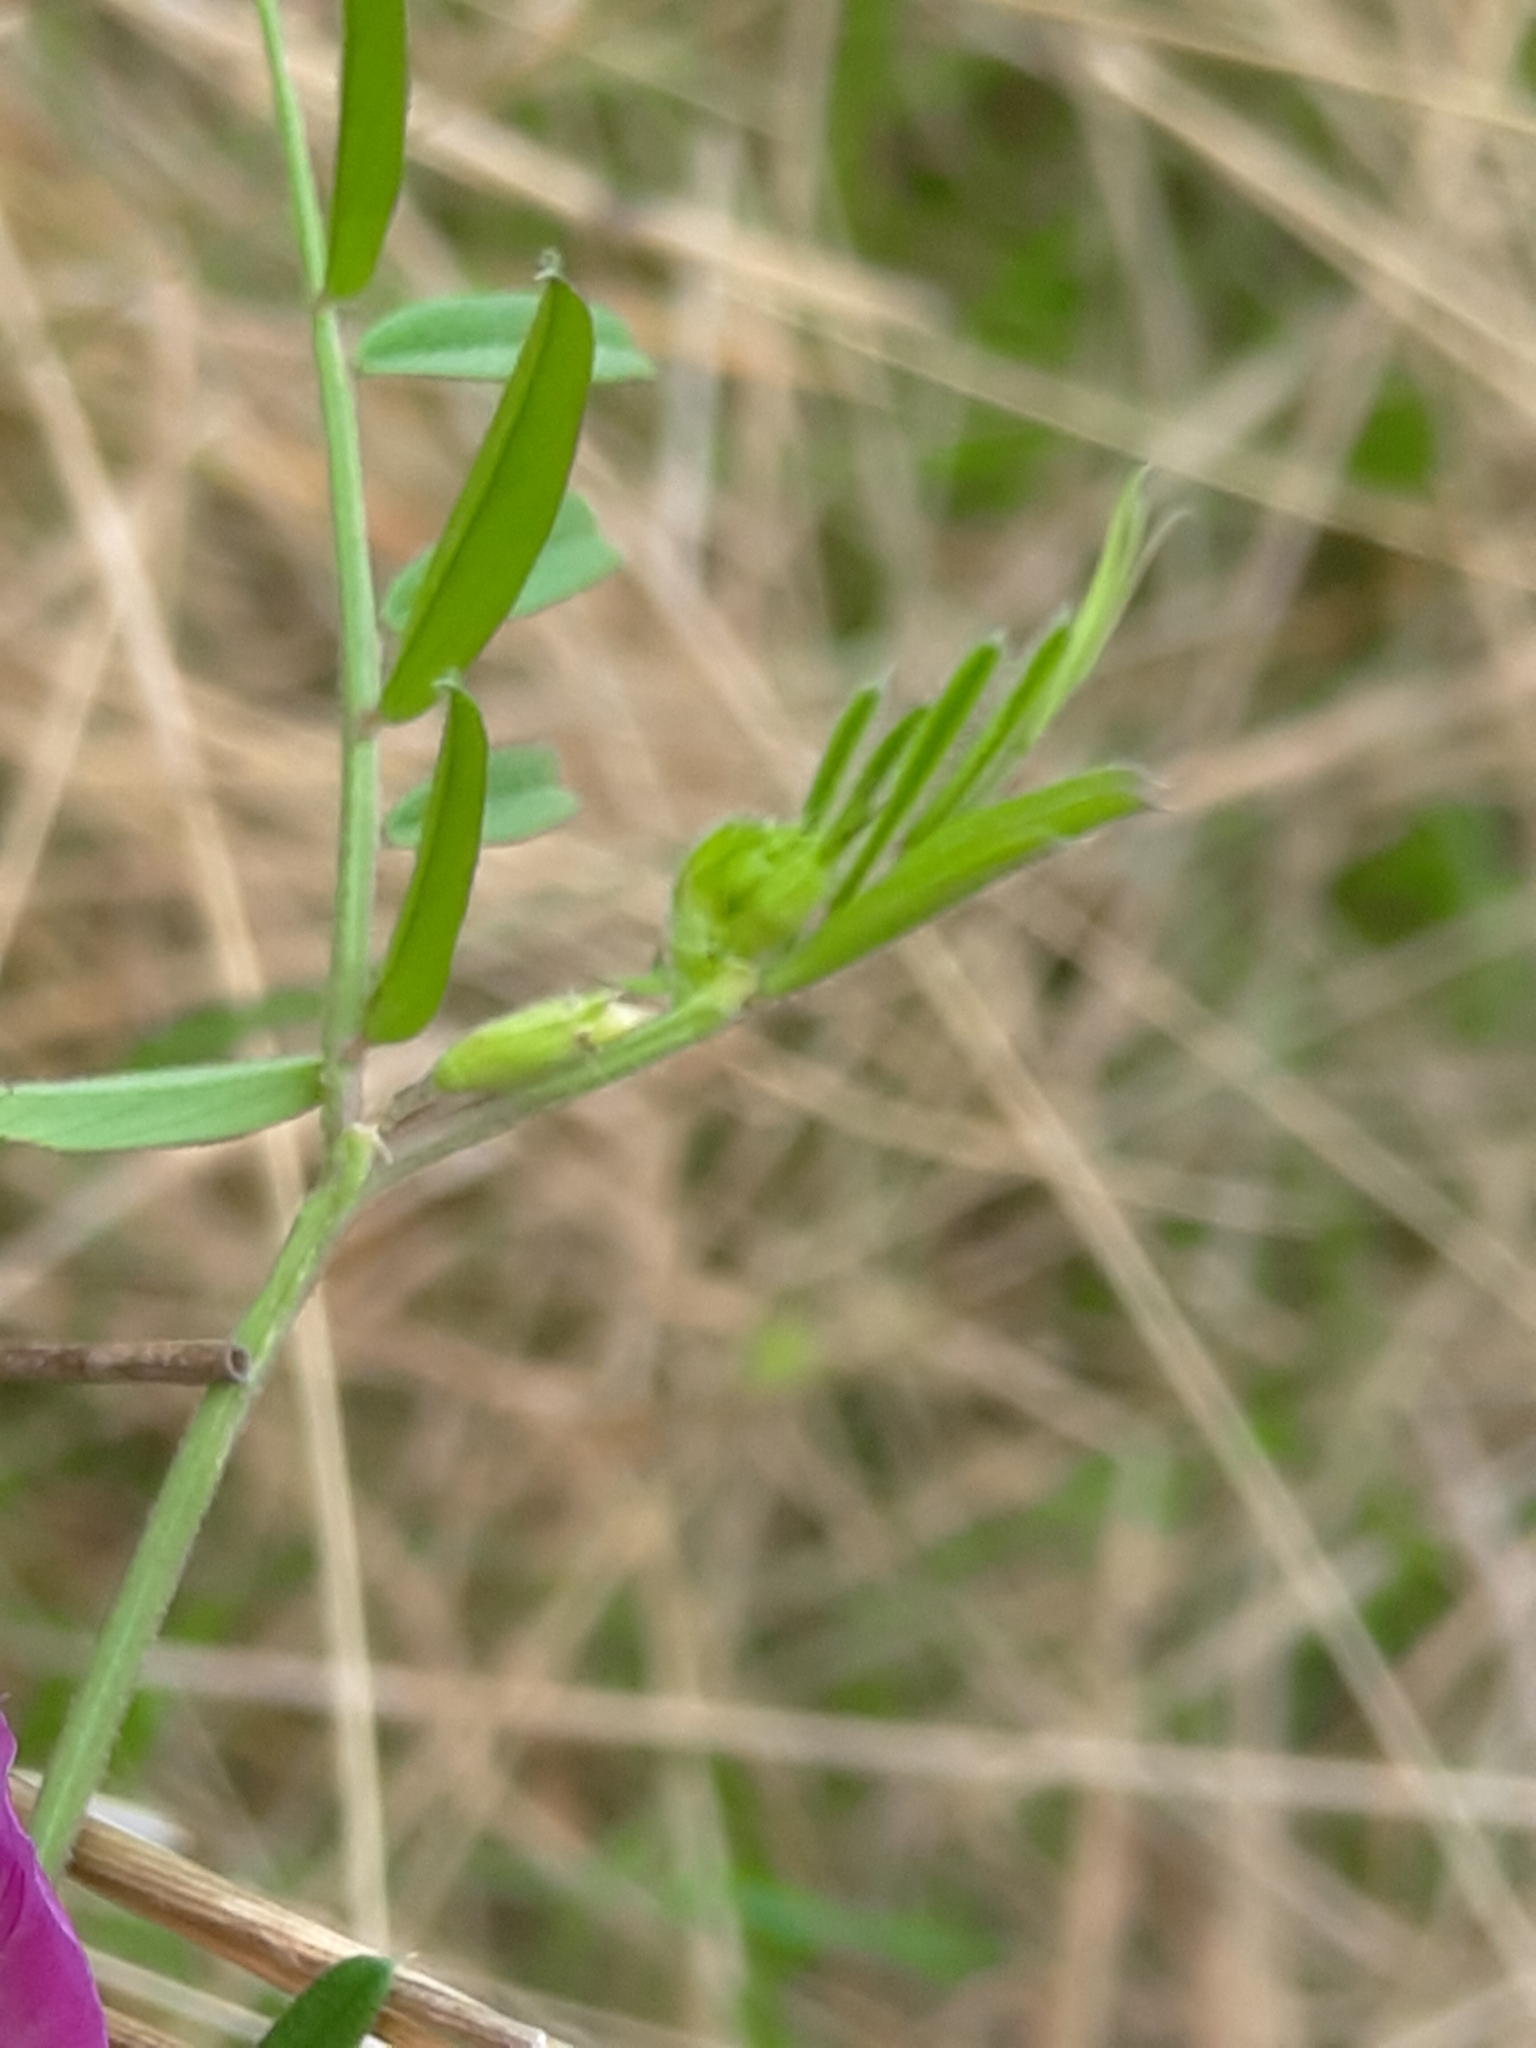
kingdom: Plantae
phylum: Tracheophyta
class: Magnoliopsida
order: Fabales
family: Fabaceae
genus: Vicia
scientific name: Vicia sativa
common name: Garden vetch
